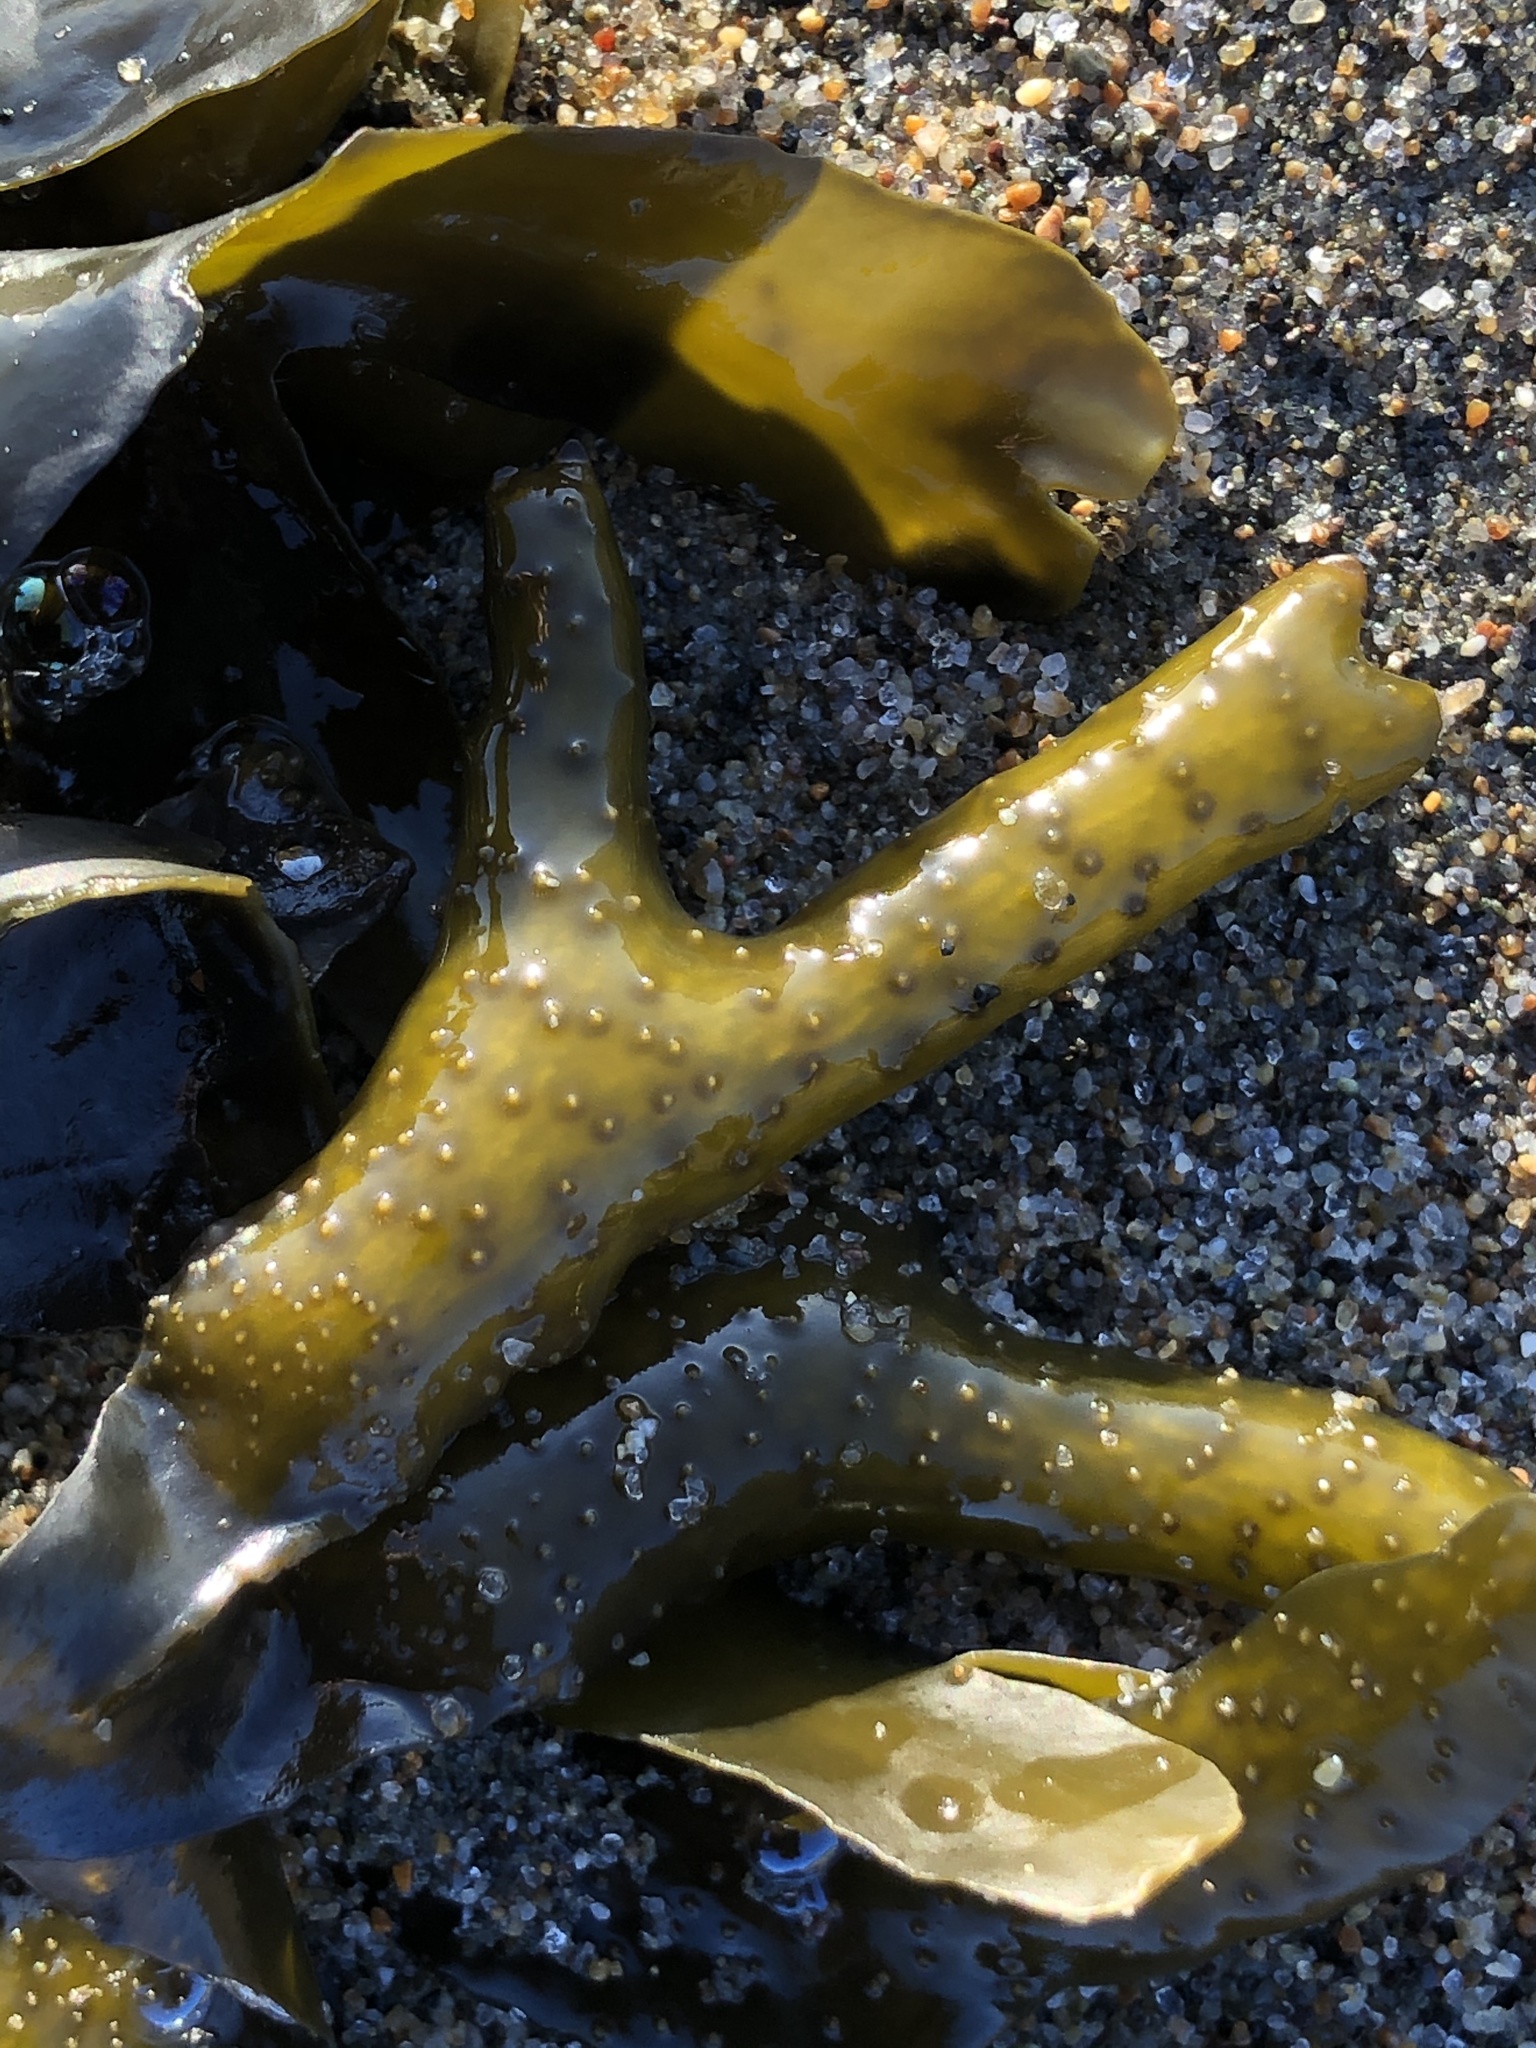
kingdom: Chromista
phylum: Ochrophyta
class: Phaeophyceae
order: Fucales
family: Fucaceae
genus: Fucus
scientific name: Fucus distichus
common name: Rockweed
